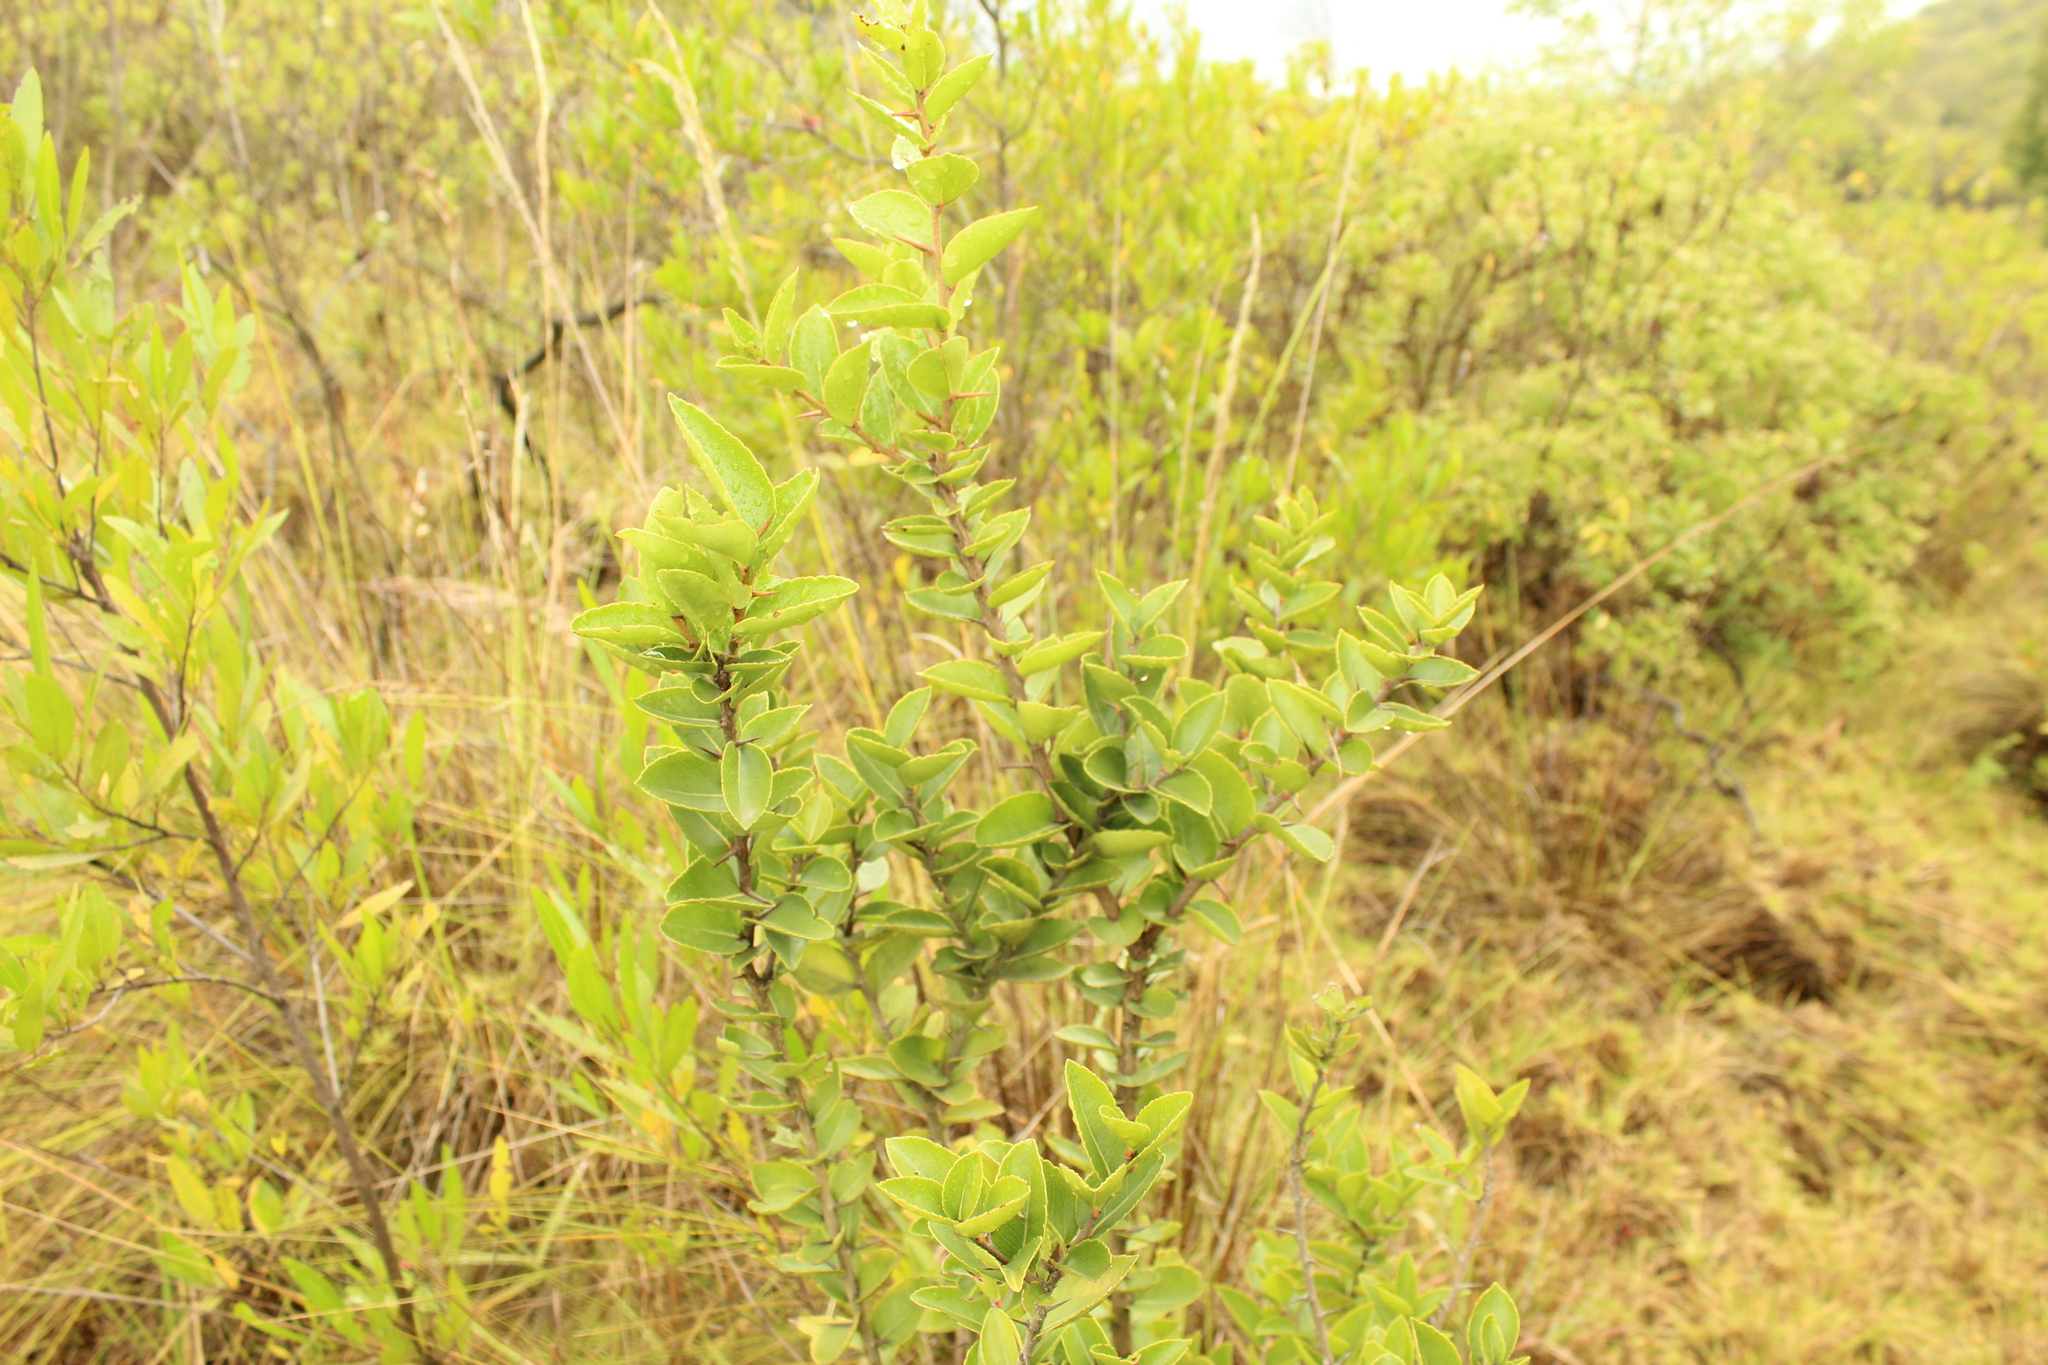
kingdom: Plantae
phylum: Tracheophyta
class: Magnoliopsida
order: Malpighiales
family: Salicaceae
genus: Xylosma
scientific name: Xylosma spiculifera
